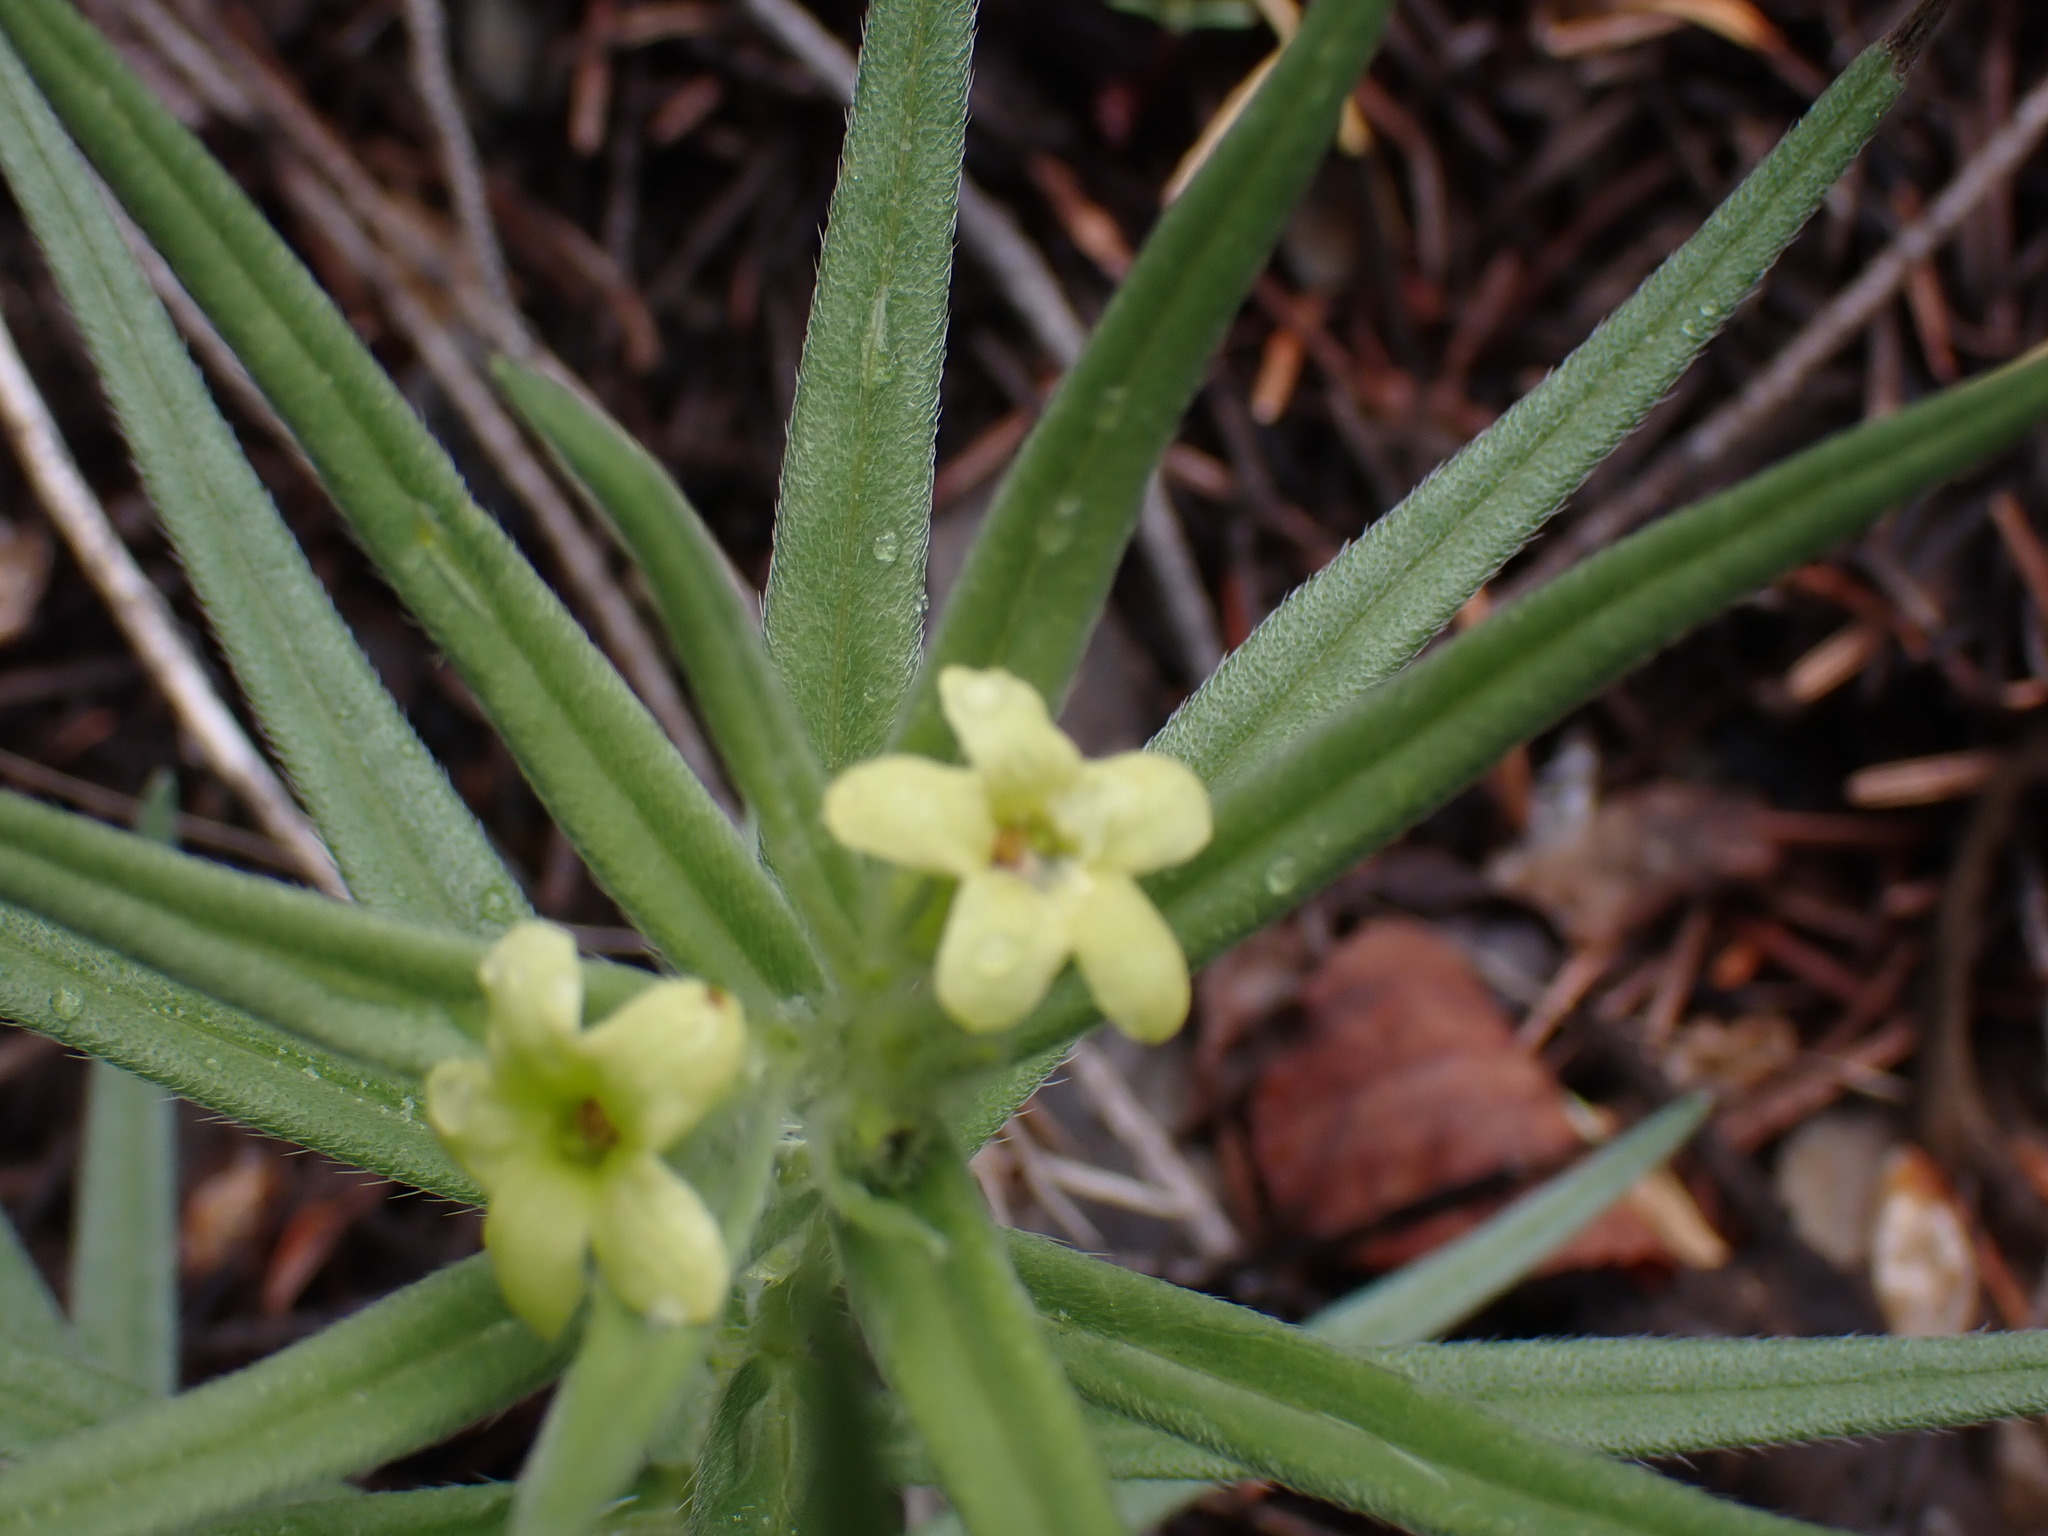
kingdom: Plantae
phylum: Tracheophyta
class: Magnoliopsida
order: Boraginales
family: Boraginaceae
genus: Lithospermum
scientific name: Lithospermum ruderale
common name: Western gromwell
